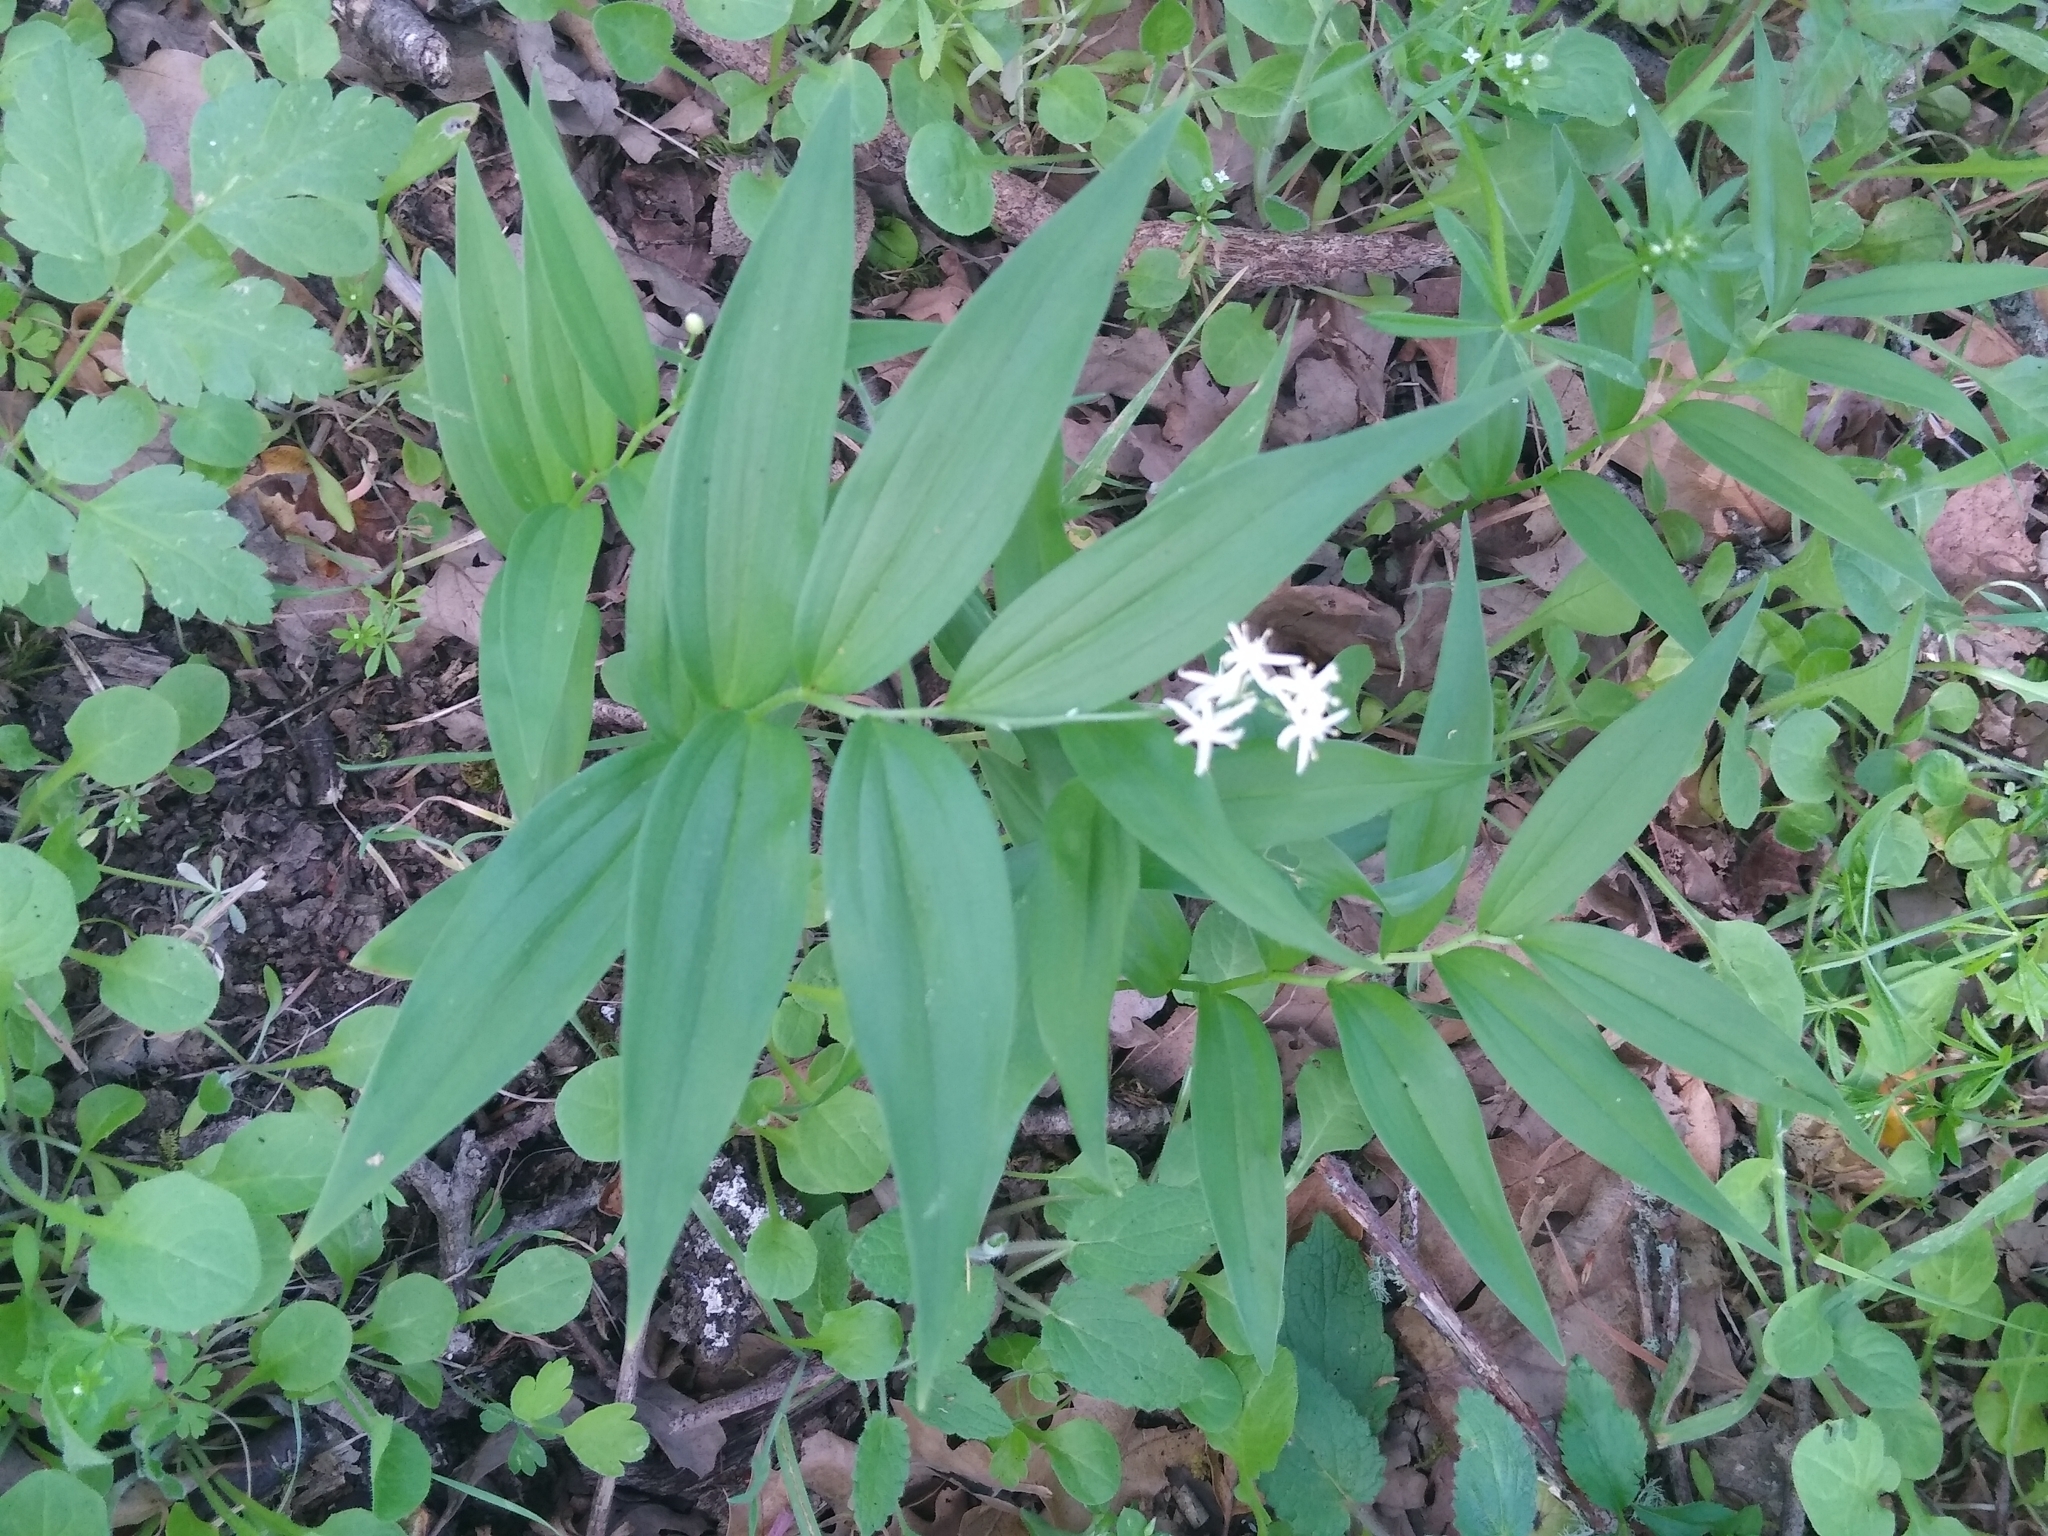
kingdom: Plantae
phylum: Tracheophyta
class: Liliopsida
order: Asparagales
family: Asparagaceae
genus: Maianthemum
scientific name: Maianthemum stellatum
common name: Little false solomon's seal
